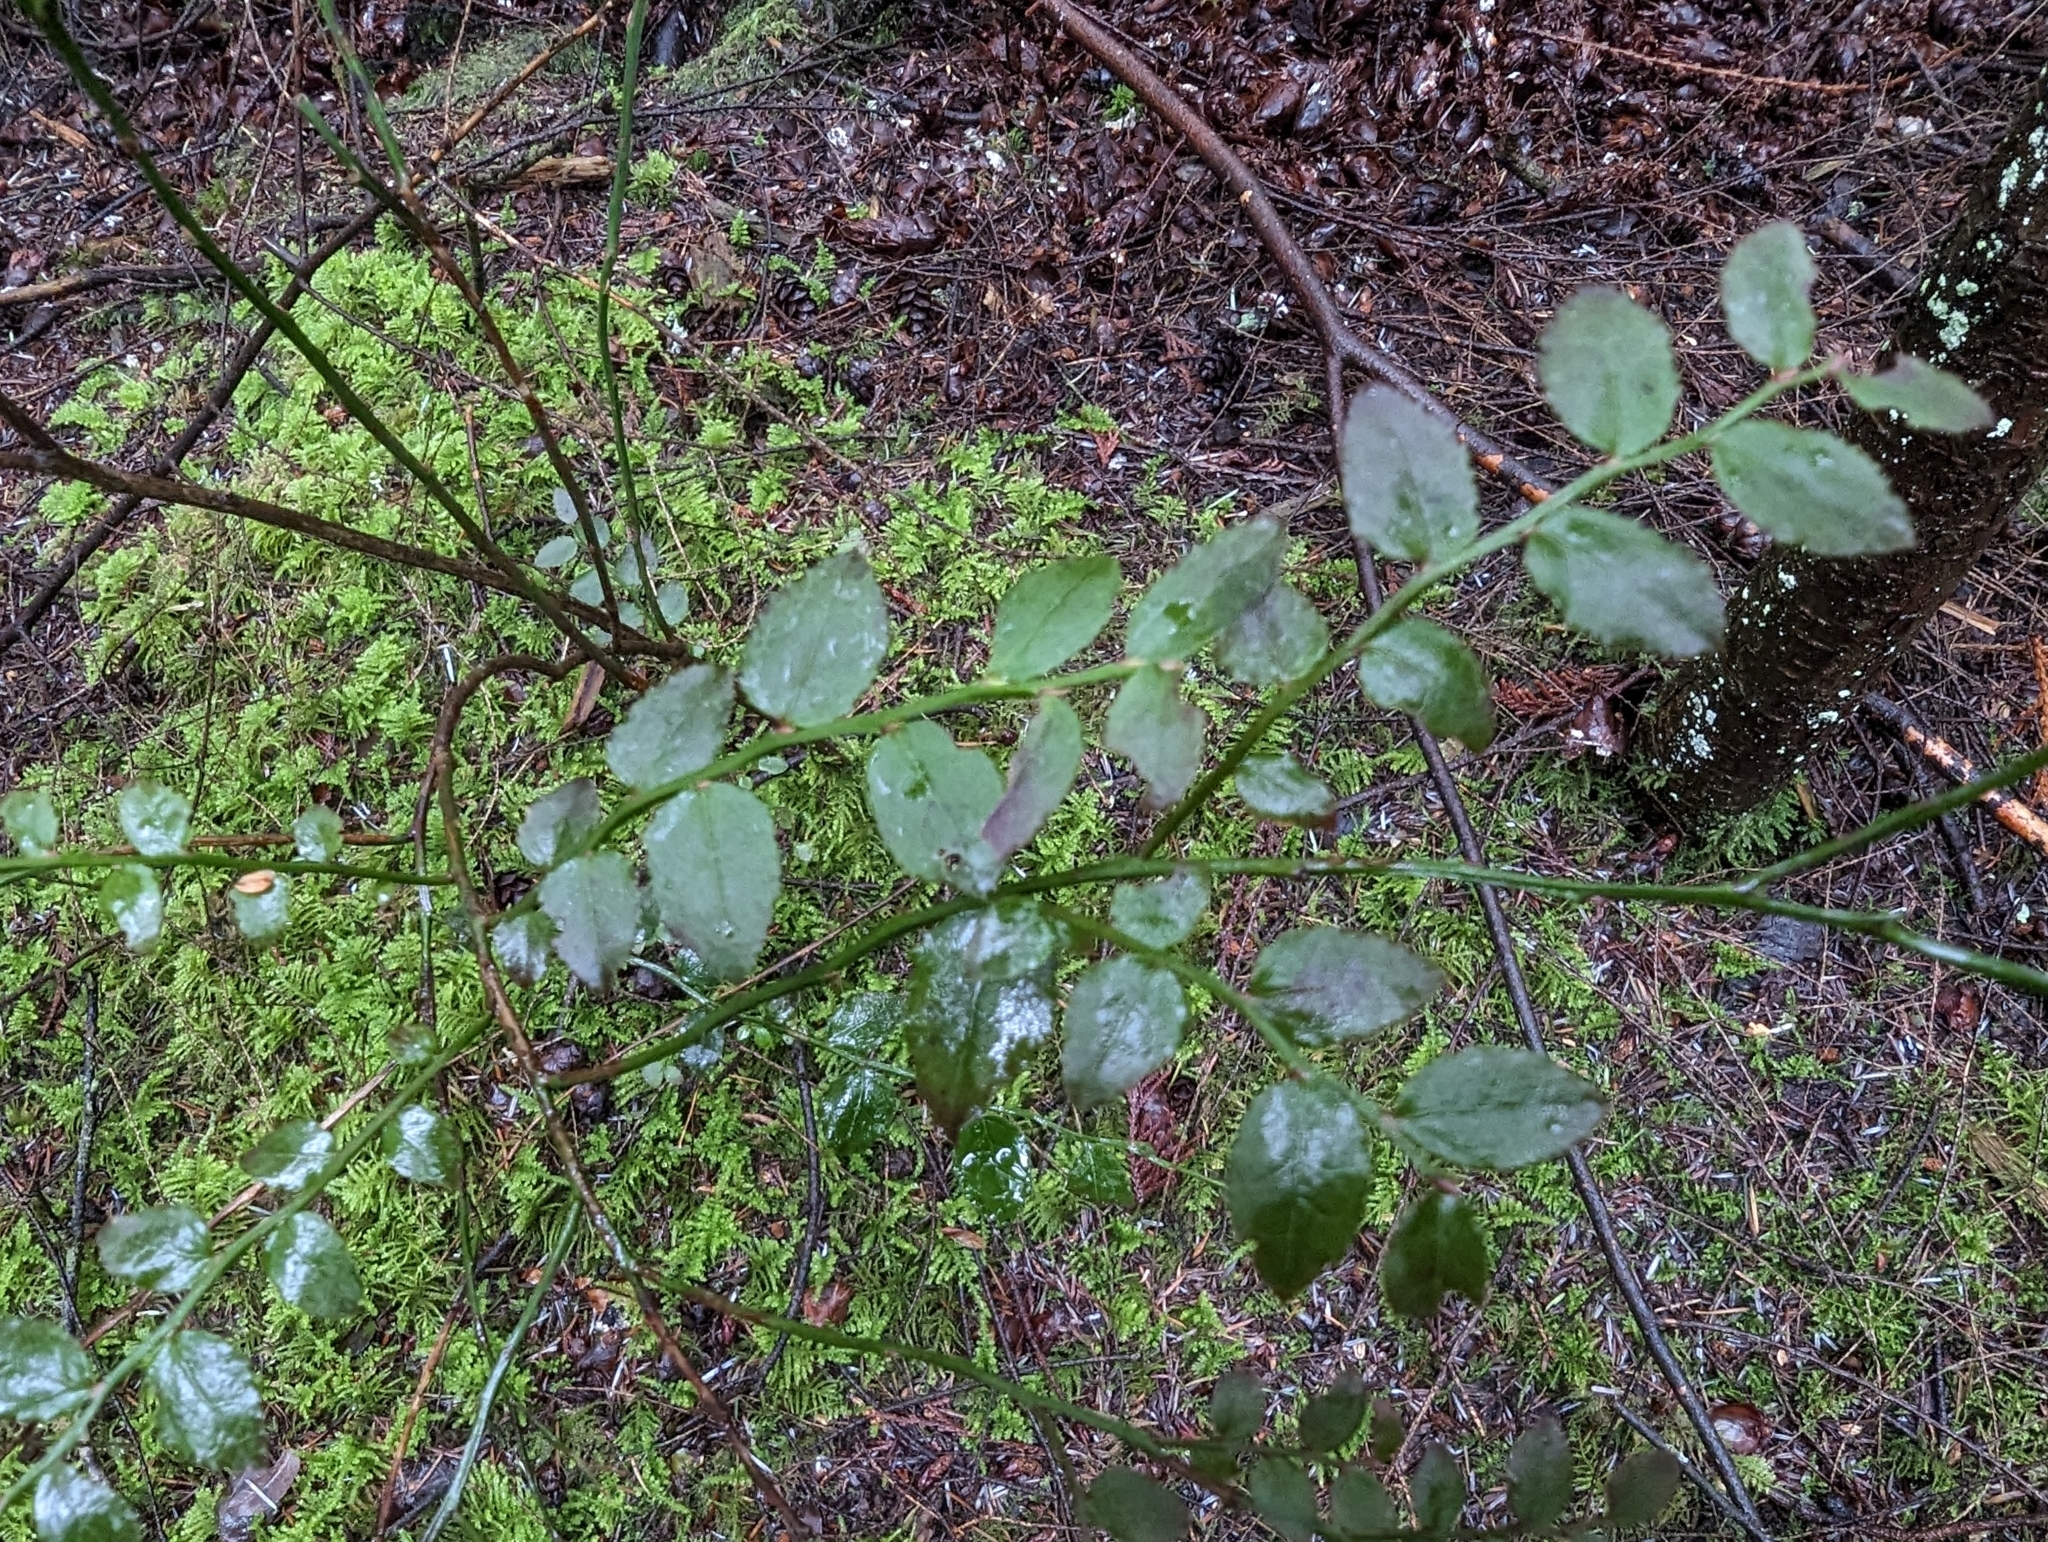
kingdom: Plantae
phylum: Tracheophyta
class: Magnoliopsida
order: Ericales
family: Ericaceae
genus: Vaccinium
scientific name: Vaccinium parvifolium
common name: Red-huckleberry
